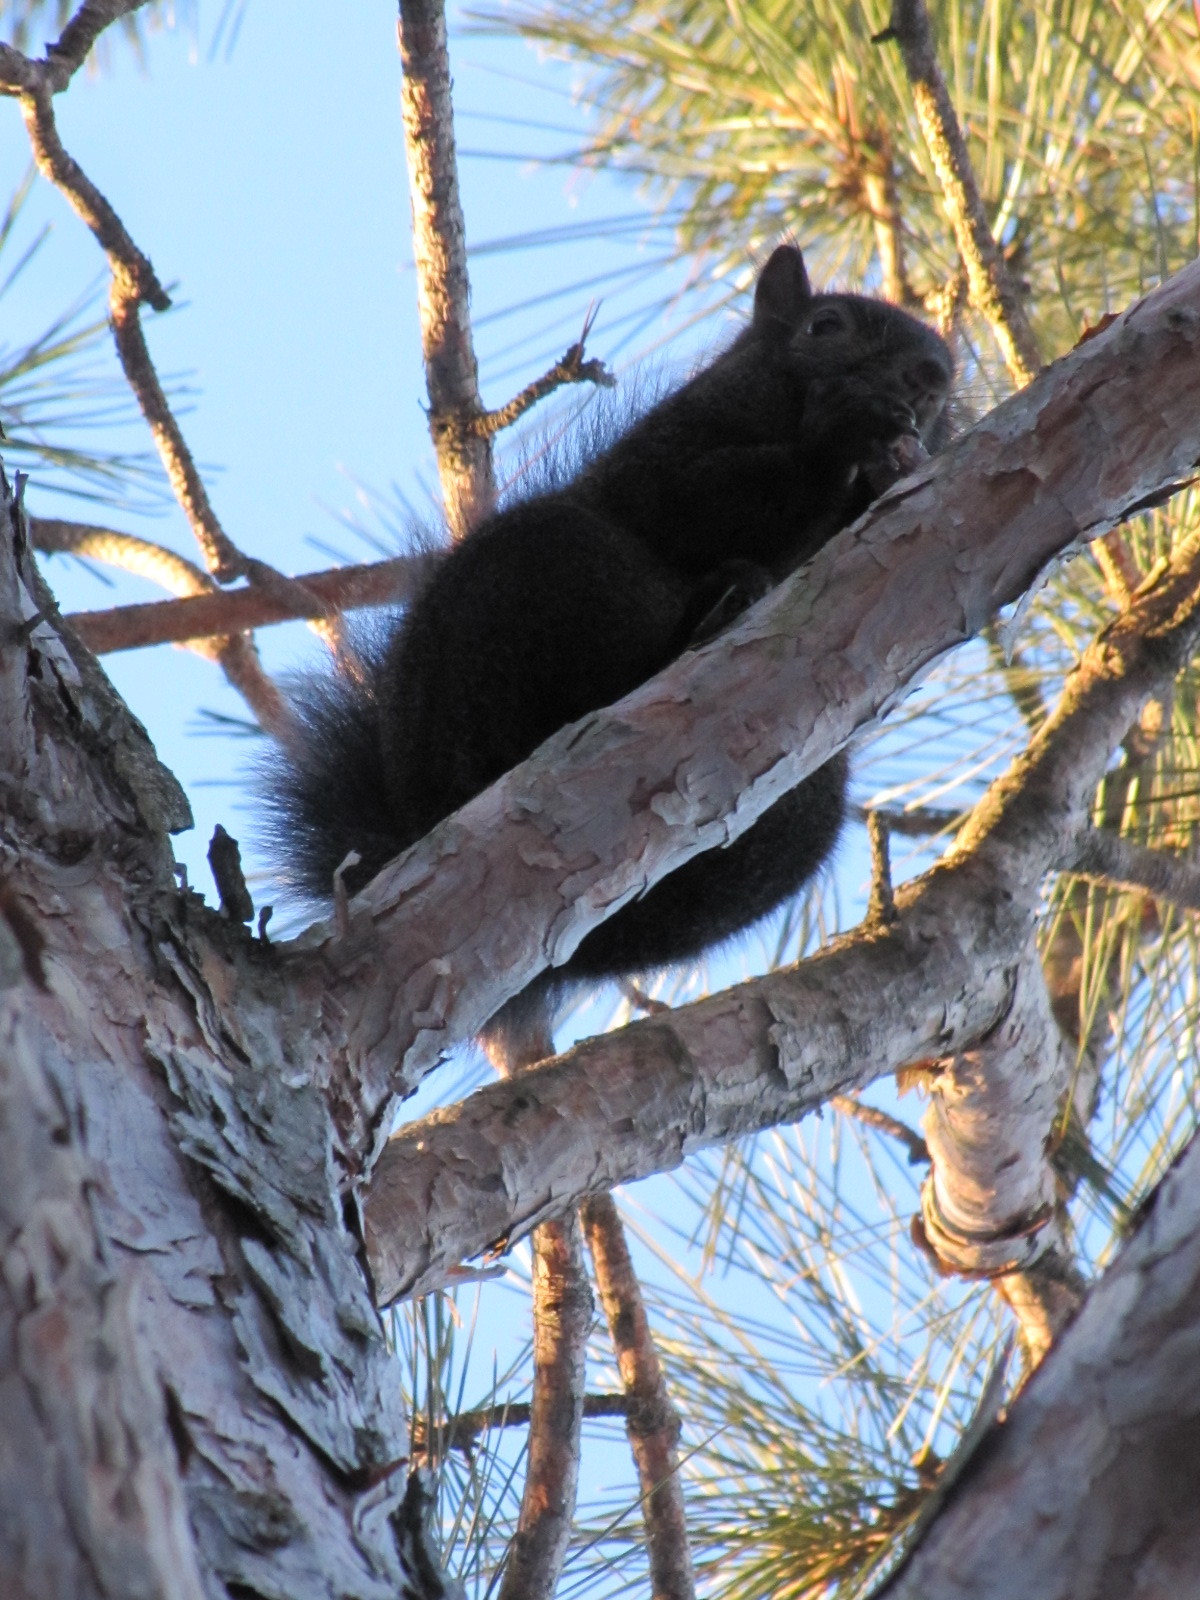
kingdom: Animalia
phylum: Chordata
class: Mammalia
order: Rodentia
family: Sciuridae
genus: Sciurus
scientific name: Sciurus carolinensis
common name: Eastern gray squirrel
